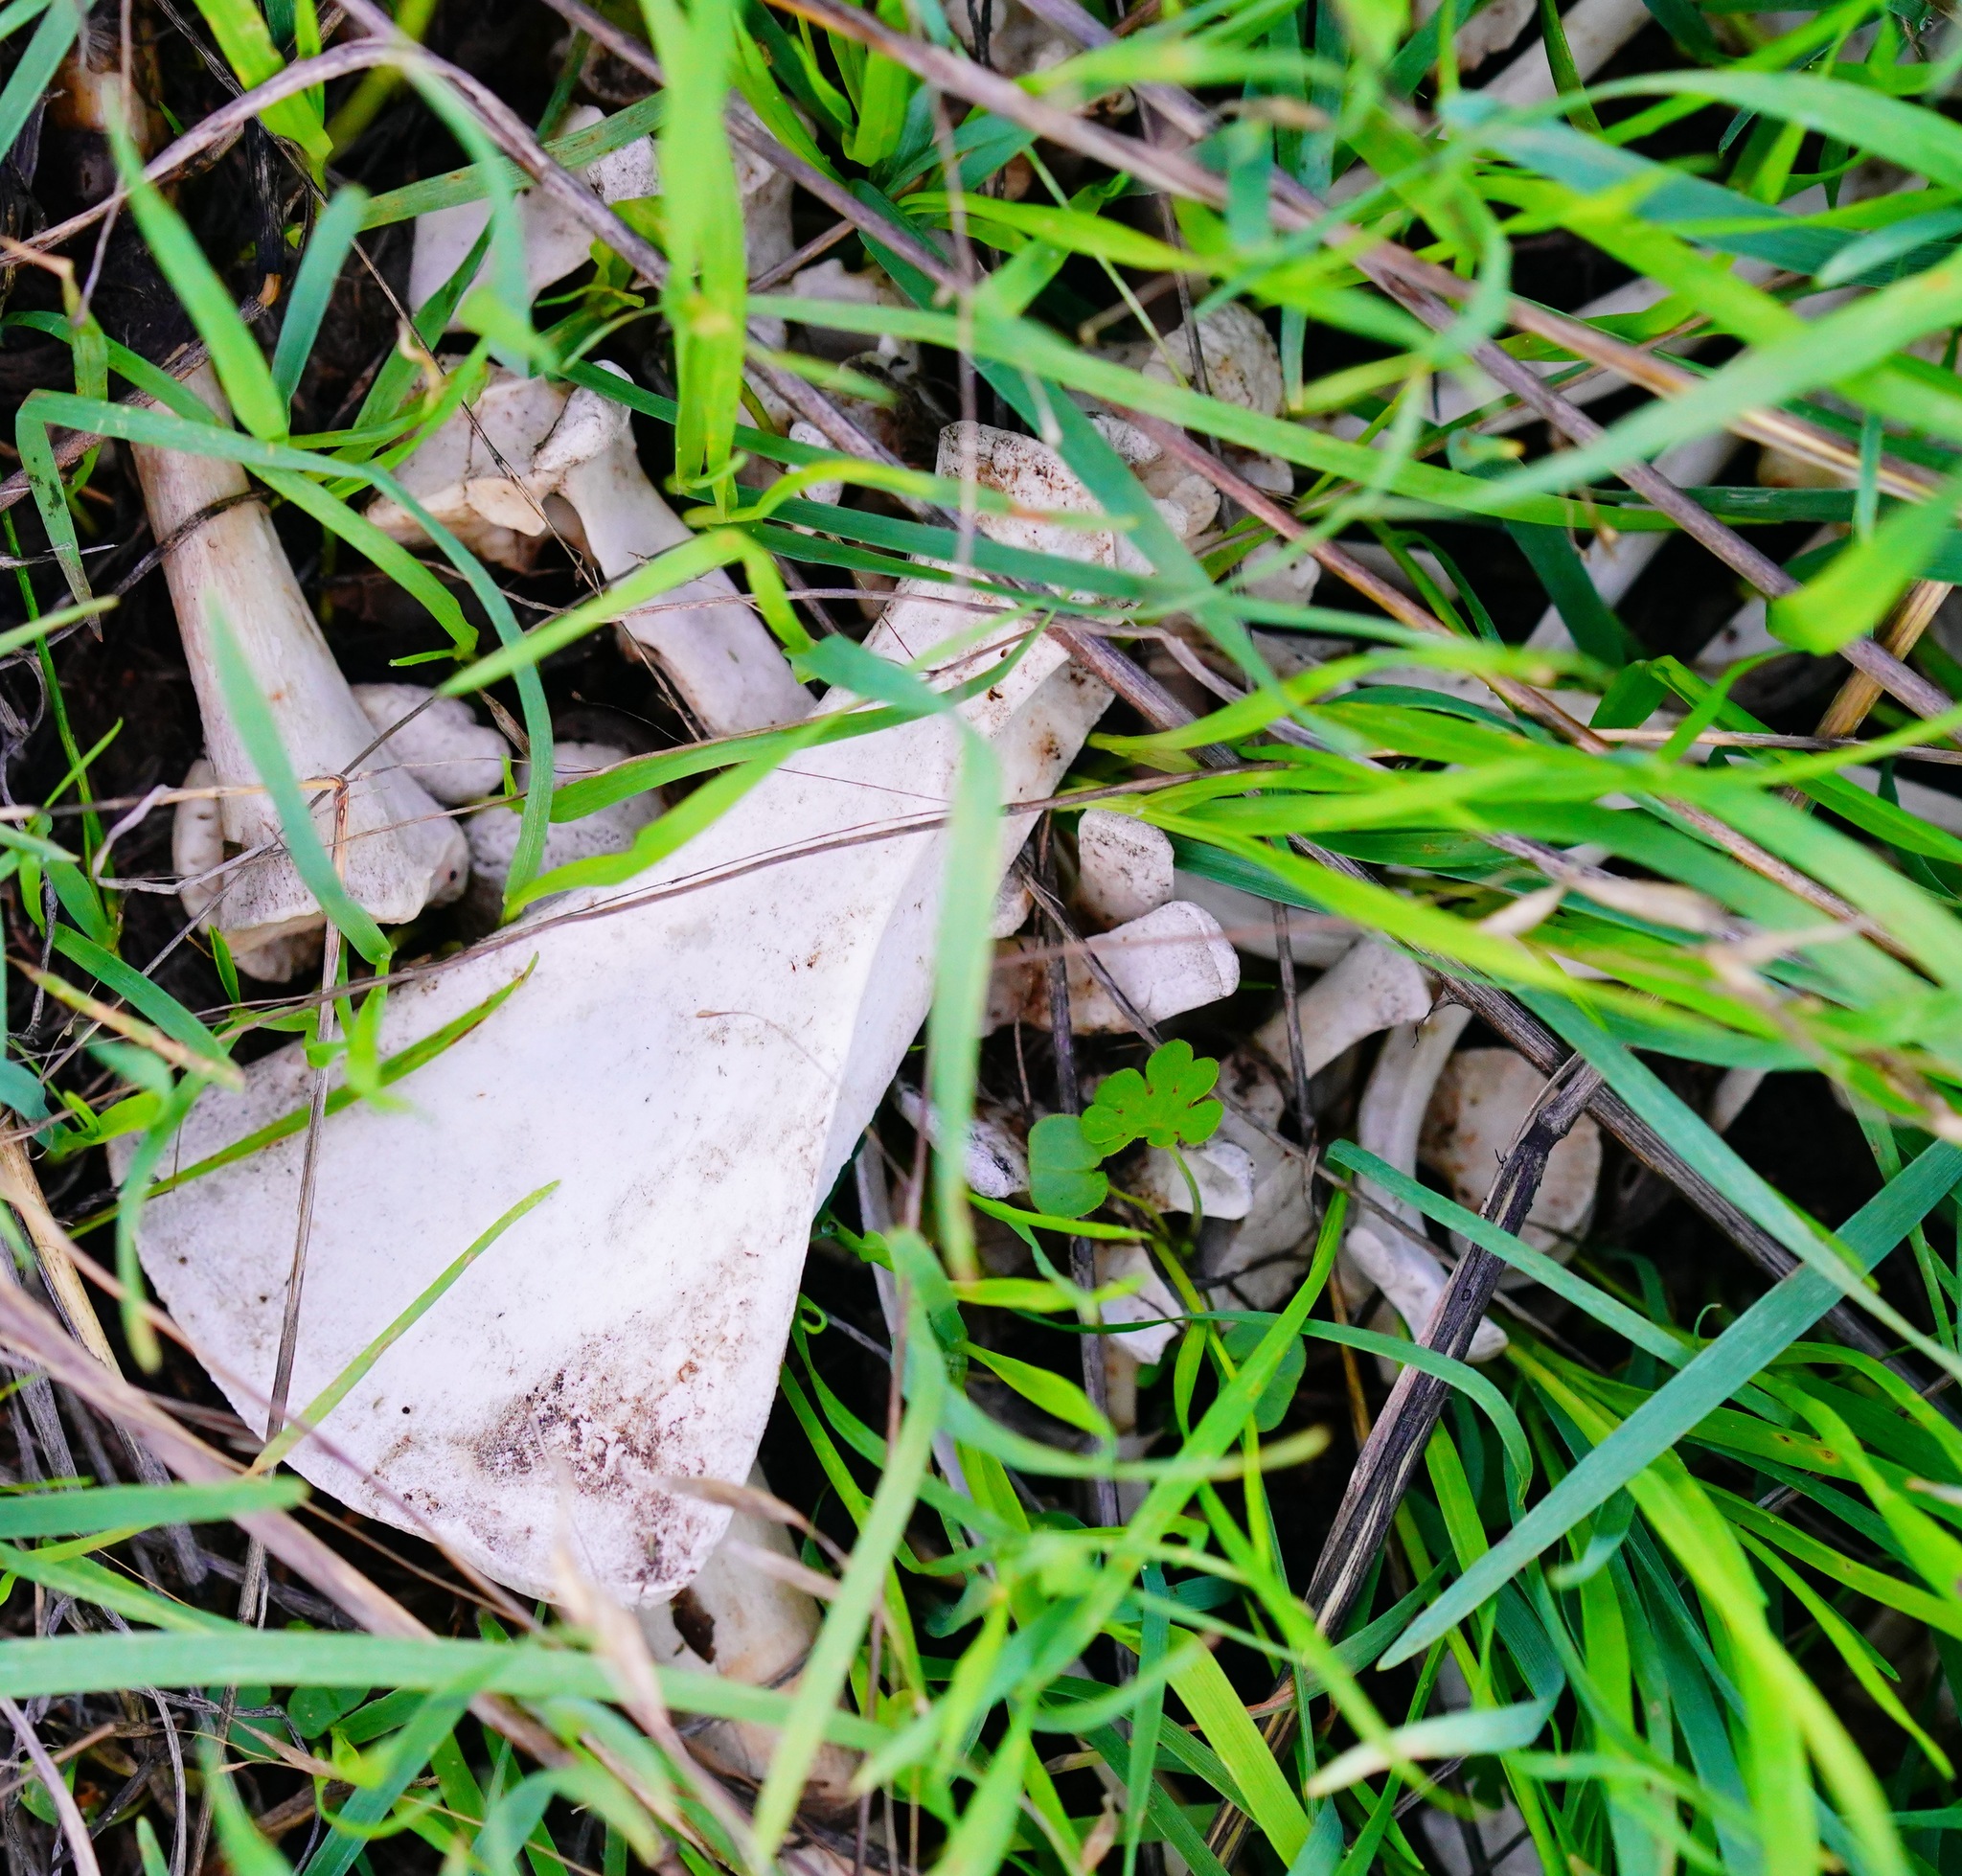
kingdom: Animalia
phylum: Chordata
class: Mammalia
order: Artiodactyla
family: Cervidae
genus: Odocoileus
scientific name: Odocoileus hemionus
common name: Mule deer
